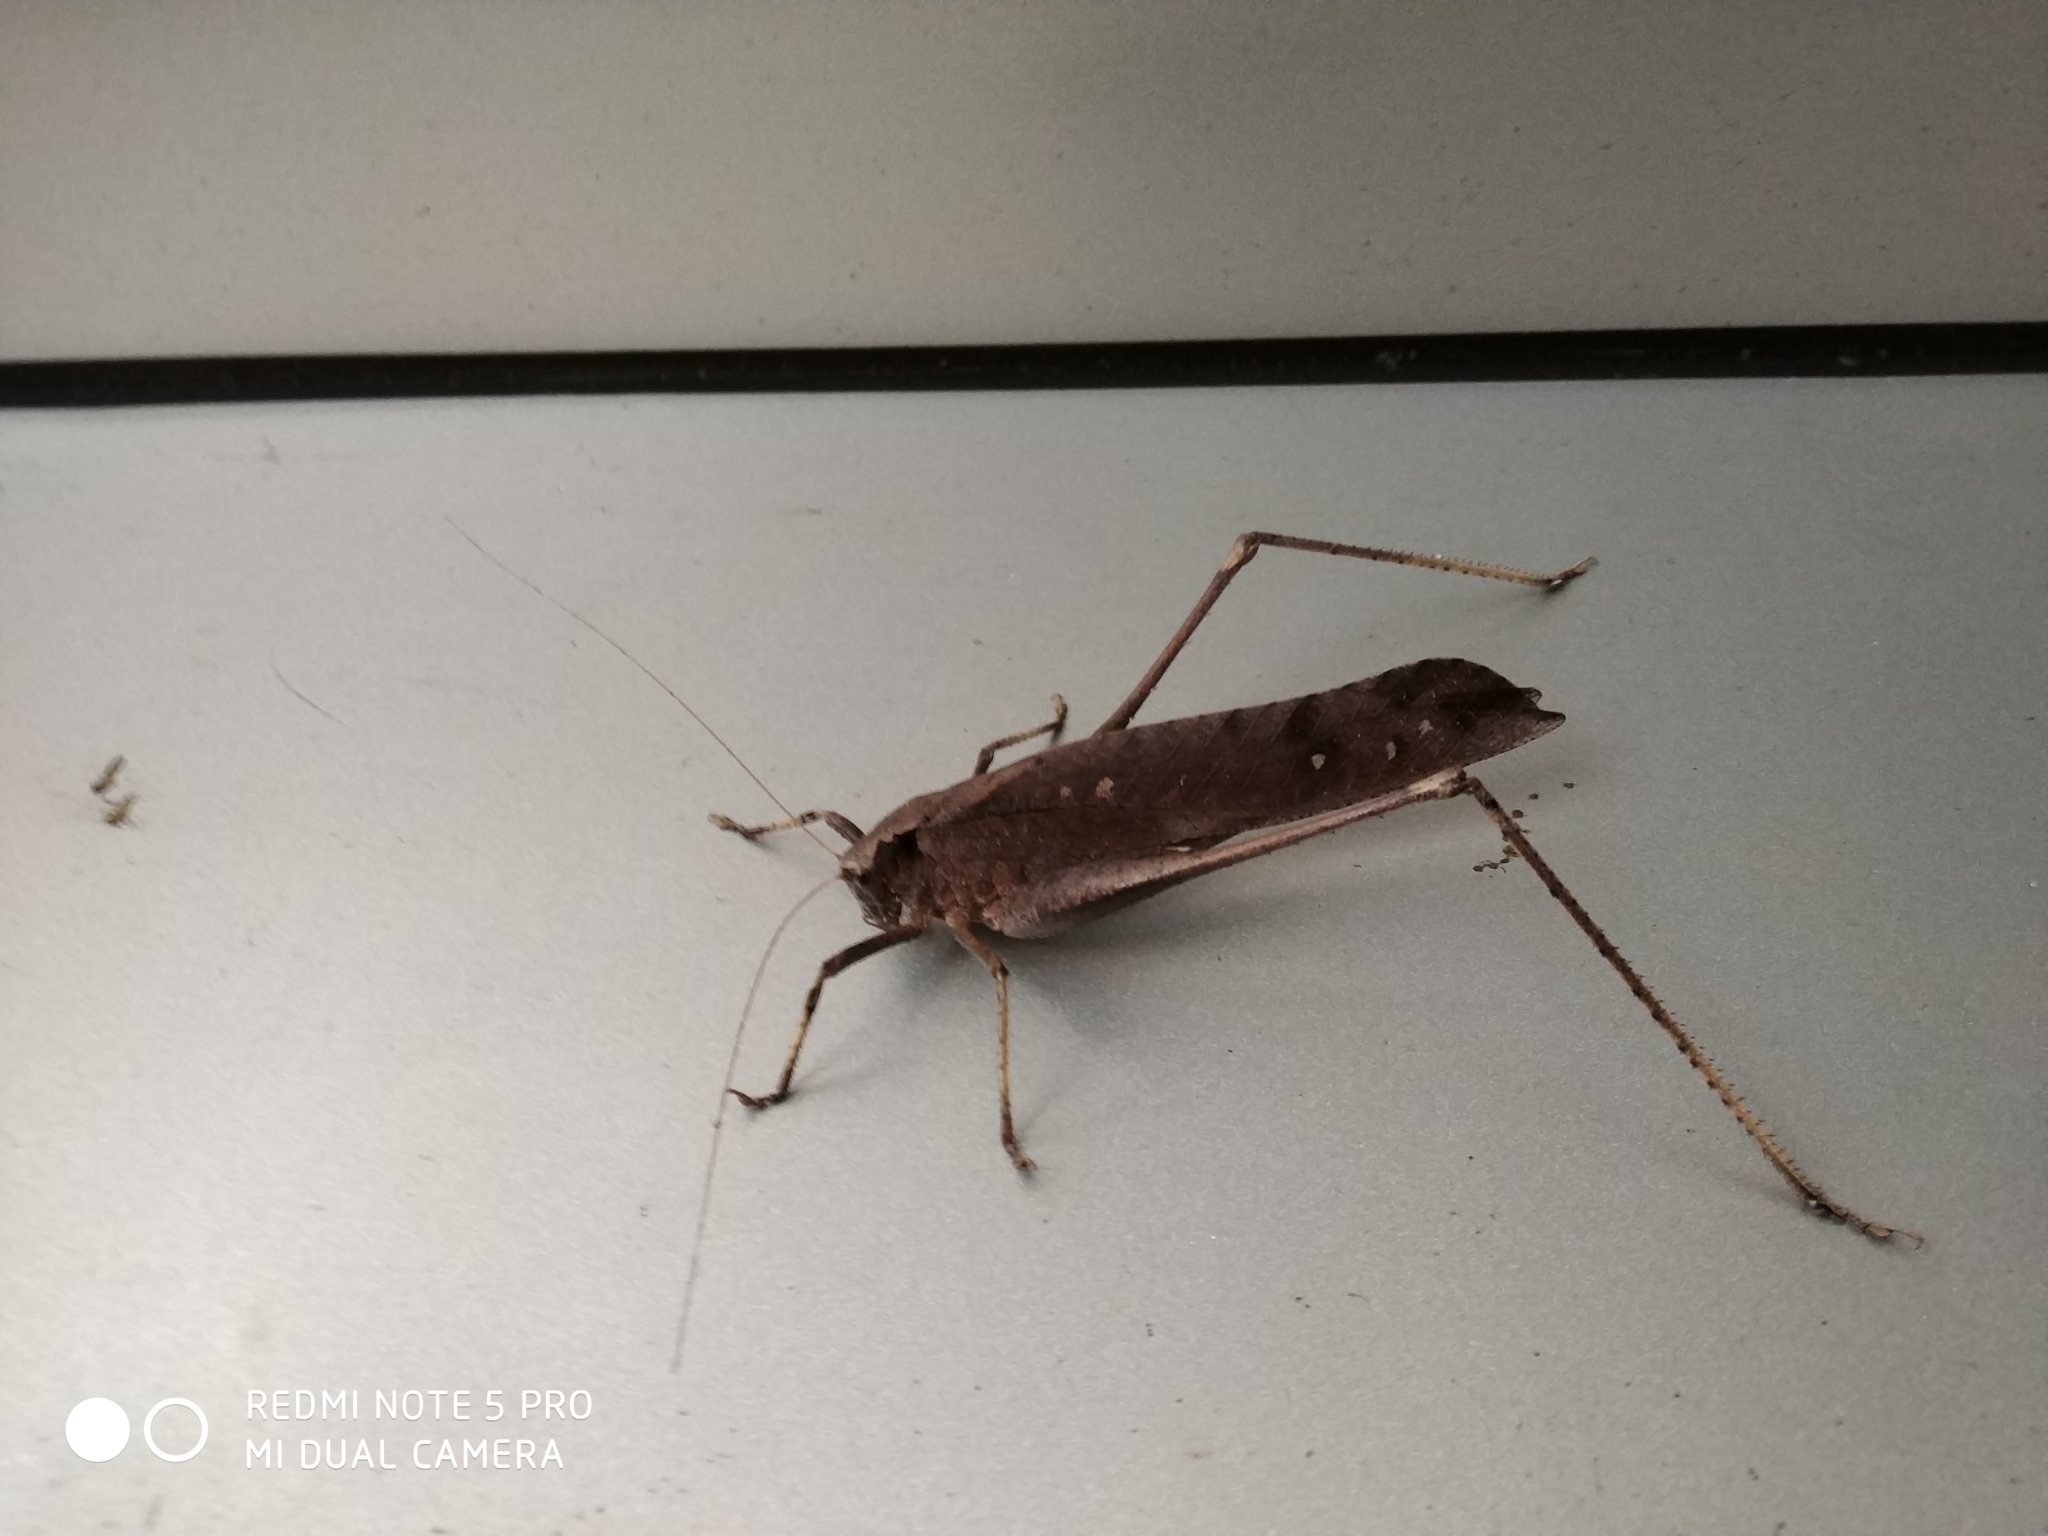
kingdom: Animalia
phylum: Arthropoda
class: Insecta
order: Orthoptera
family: Tettigoniidae
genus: Mecopoda
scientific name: Mecopoda elongata
